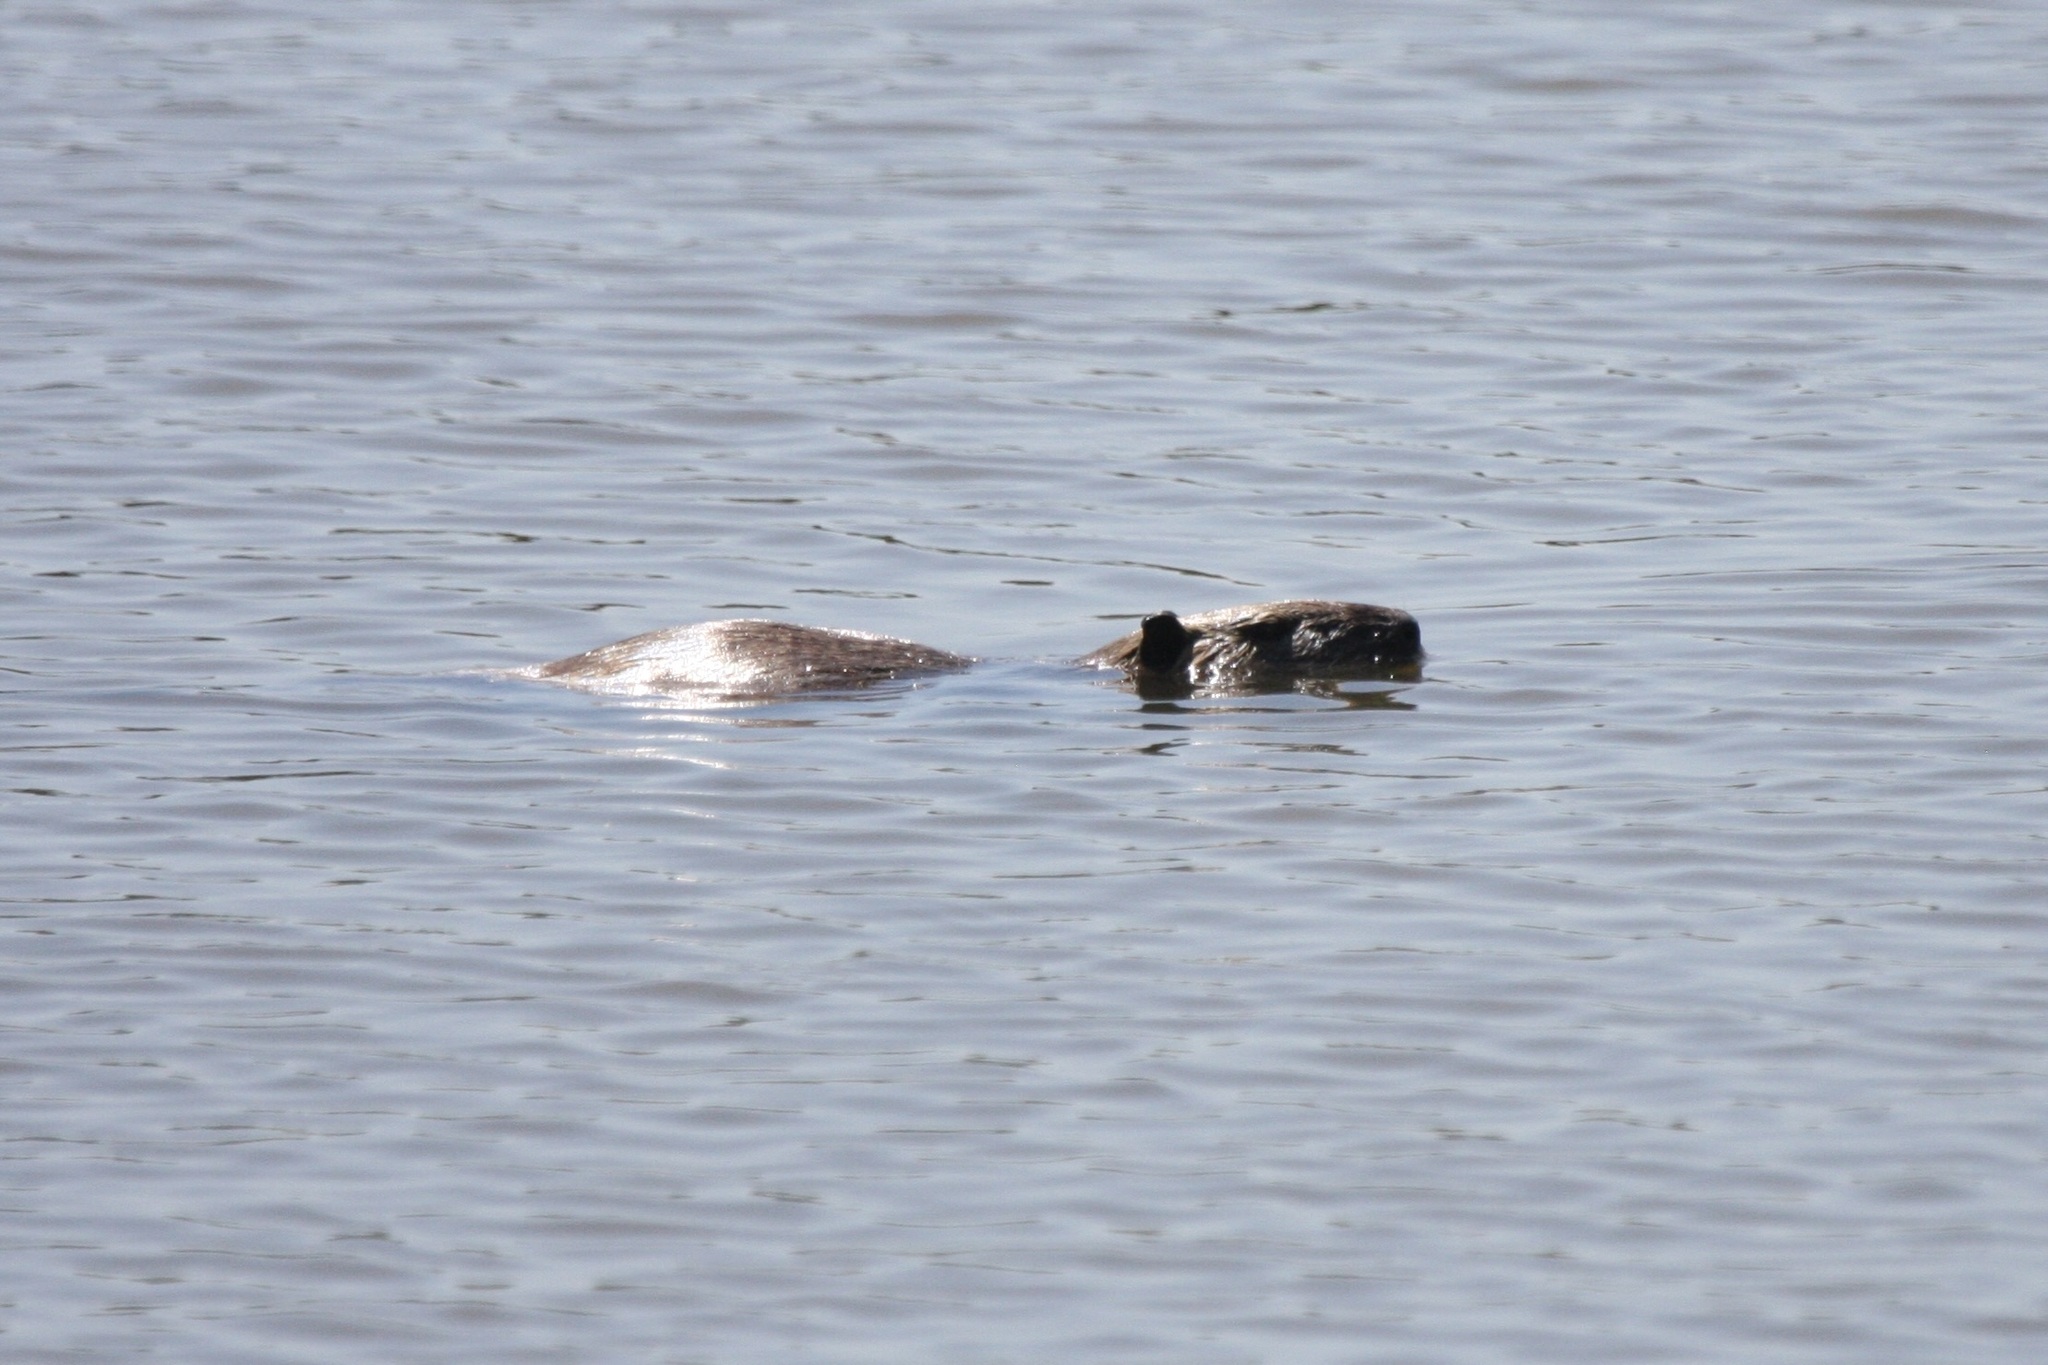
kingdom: Animalia
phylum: Chordata
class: Mammalia
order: Rodentia
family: Myocastoridae
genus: Myocastor
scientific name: Myocastor coypus
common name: Coypu
